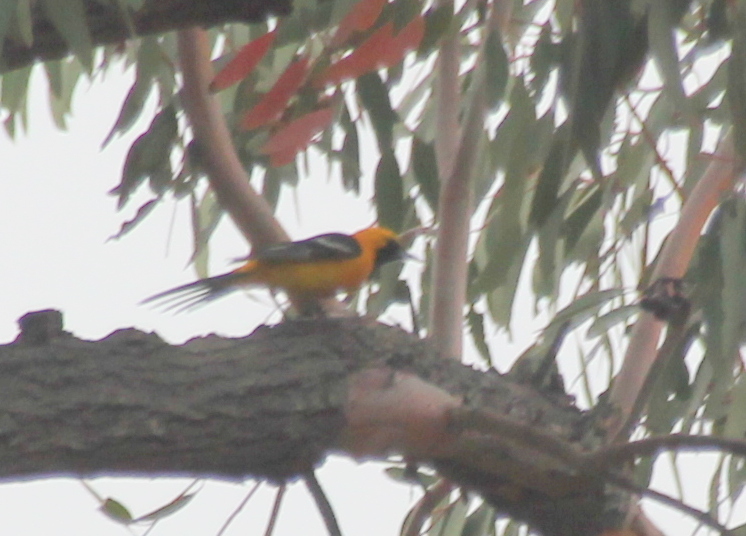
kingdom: Animalia
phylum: Chordata
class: Aves
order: Passeriformes
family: Icteridae
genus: Icterus
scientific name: Icterus cucullatus
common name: Hooded oriole
